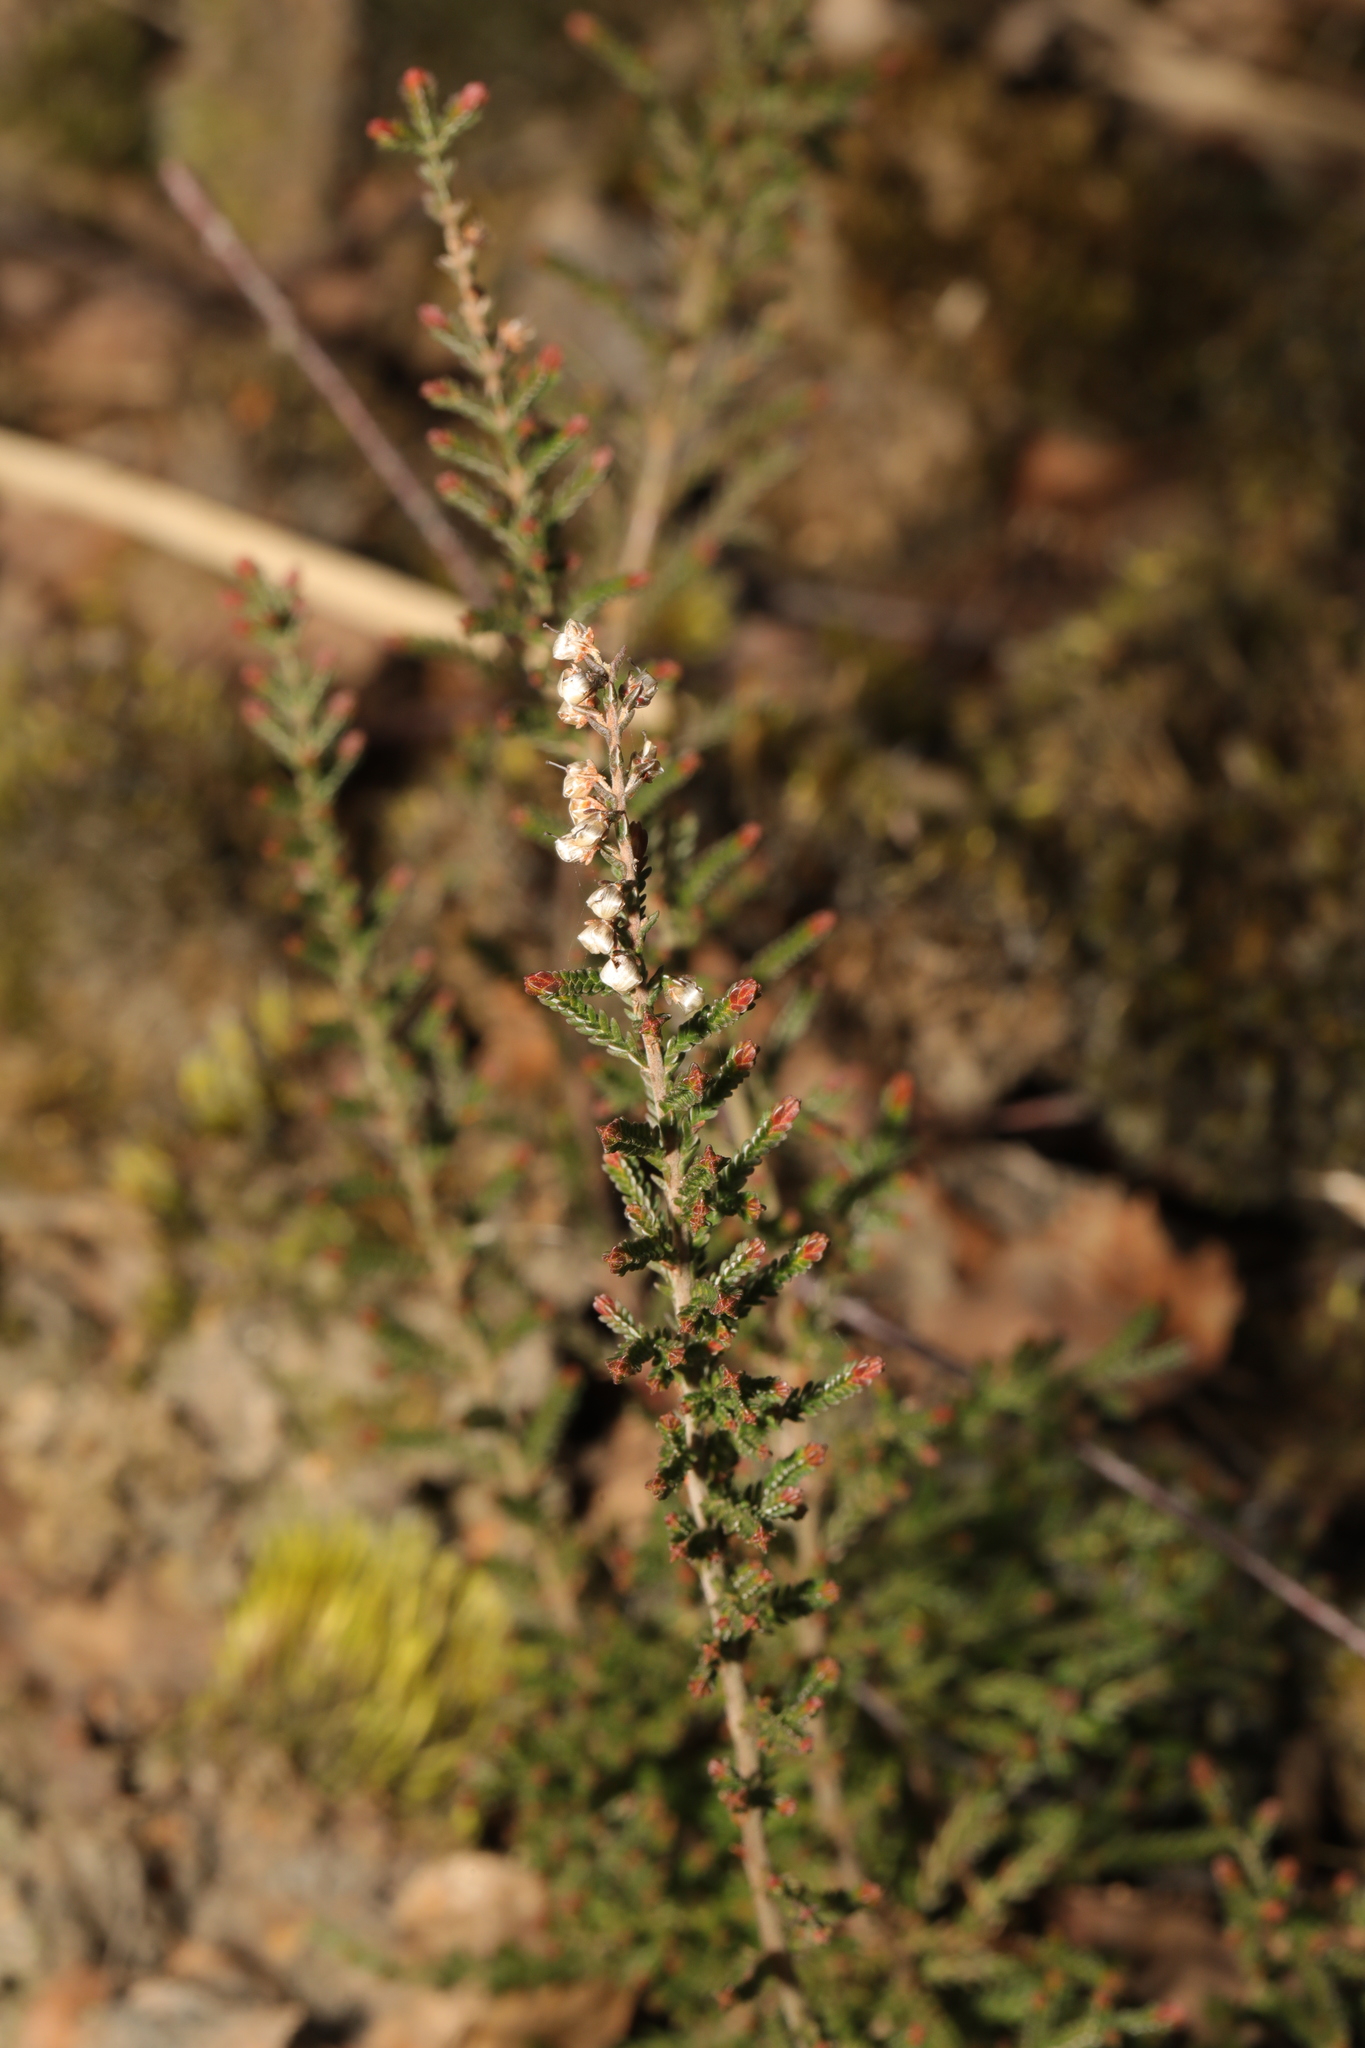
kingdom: Plantae
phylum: Tracheophyta
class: Magnoliopsida
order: Ericales
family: Ericaceae
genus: Calluna
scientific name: Calluna vulgaris
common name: Heather
